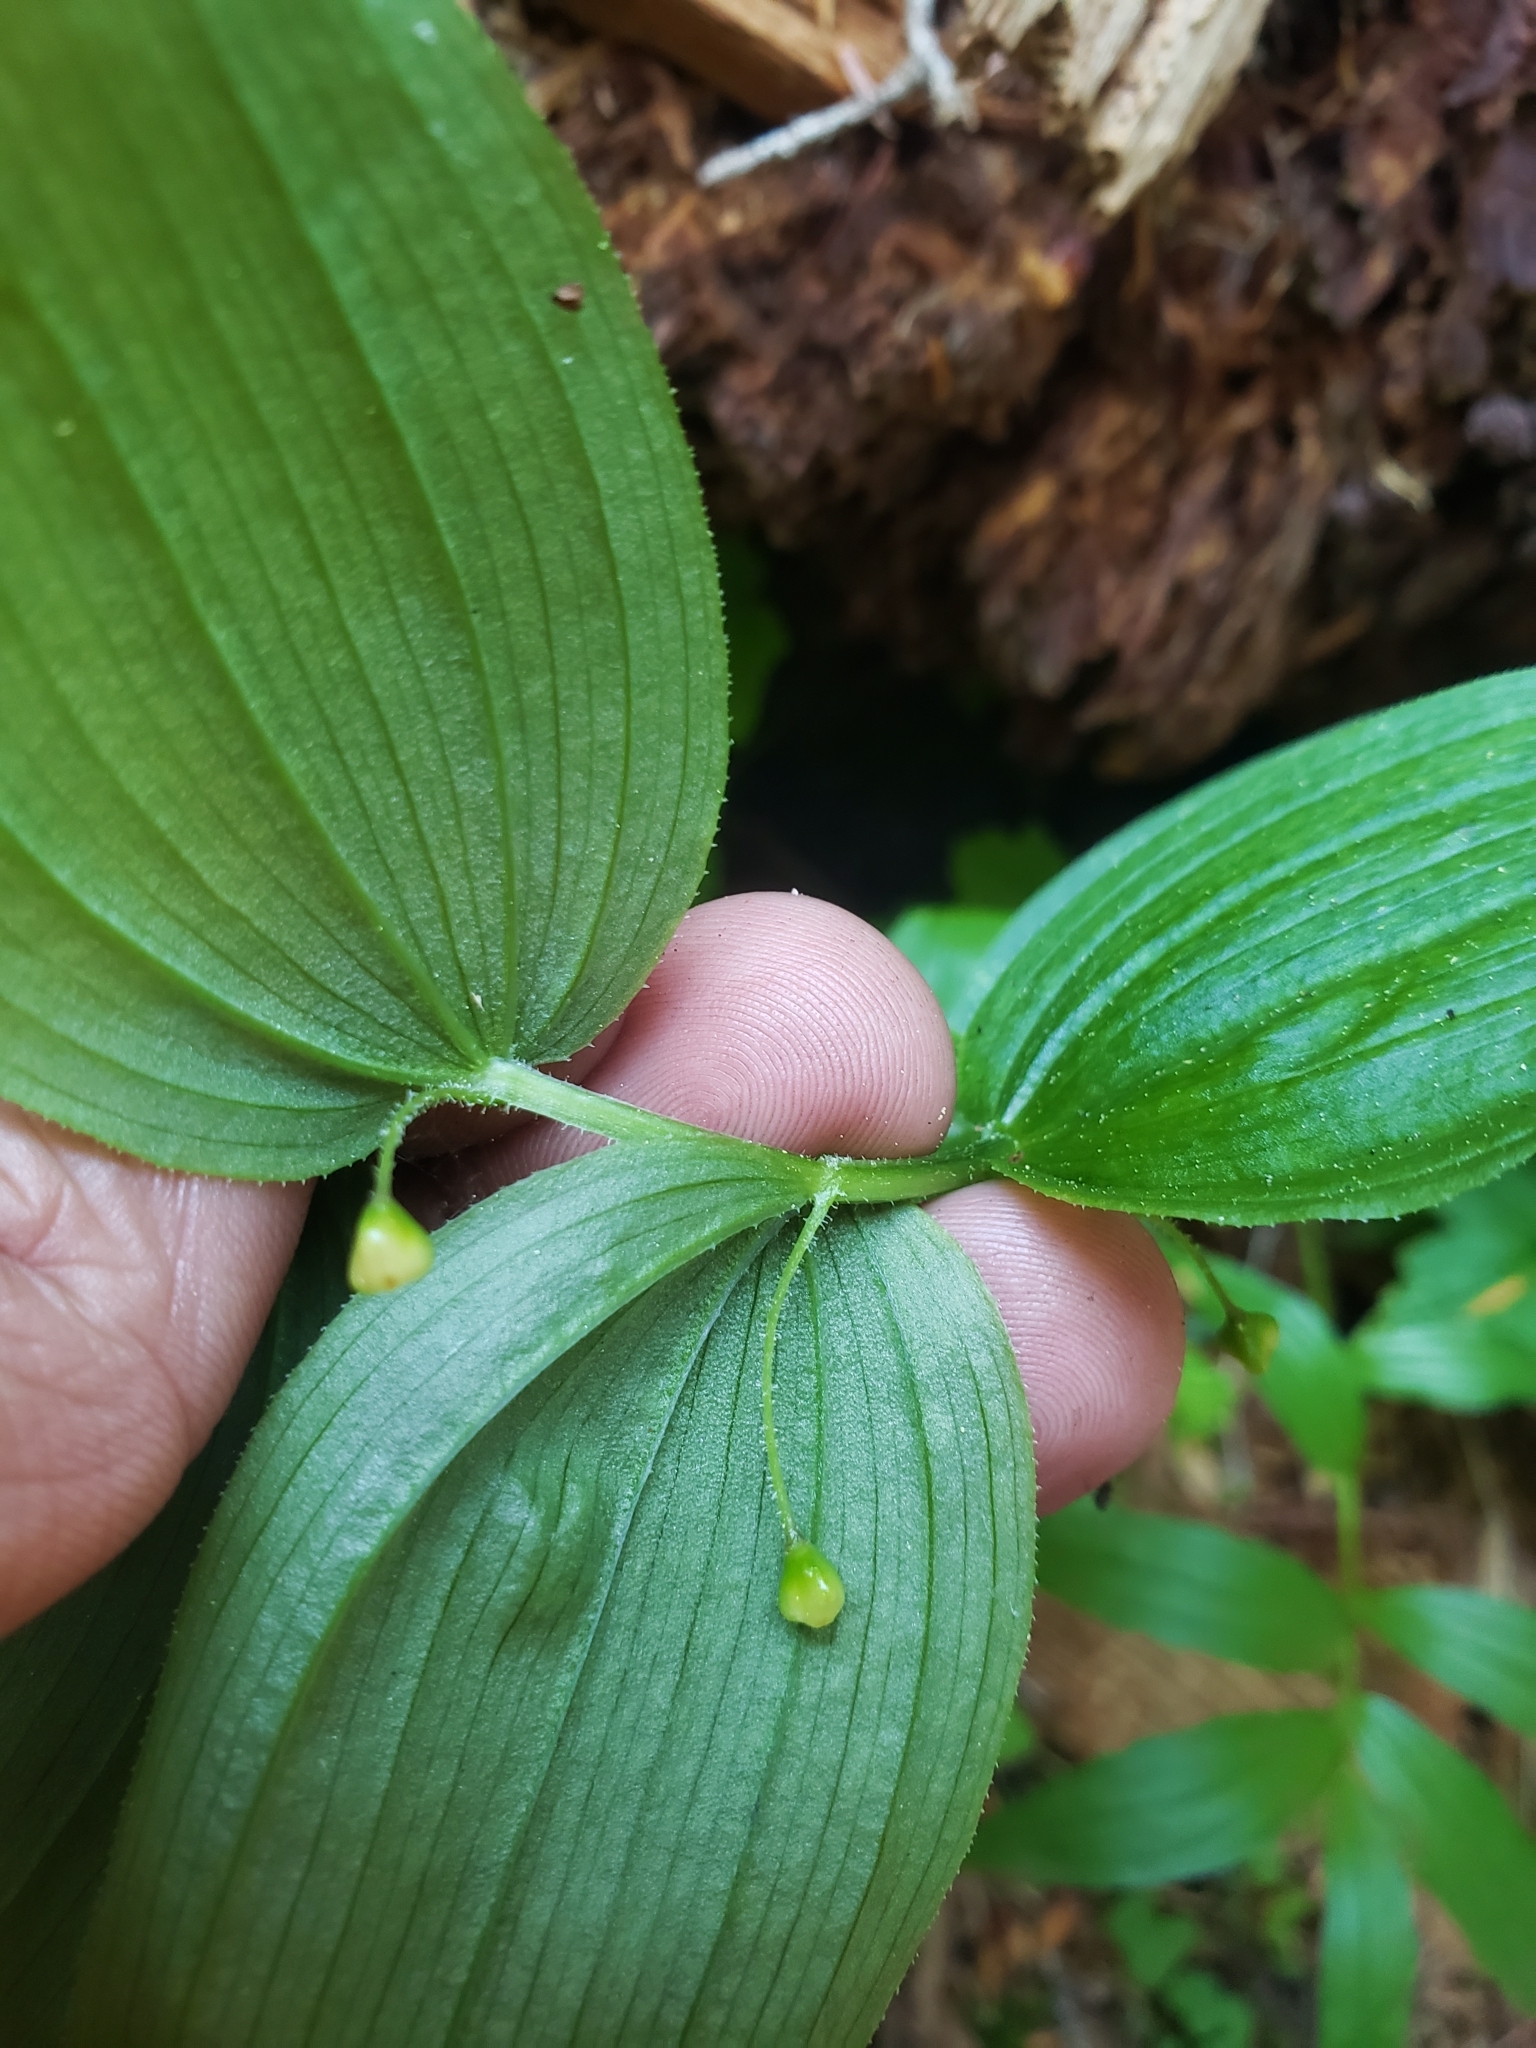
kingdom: Plantae
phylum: Tracheophyta
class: Liliopsida
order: Liliales
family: Liliaceae
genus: Streptopus
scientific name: Streptopus lanceolatus
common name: Rose mandarin
